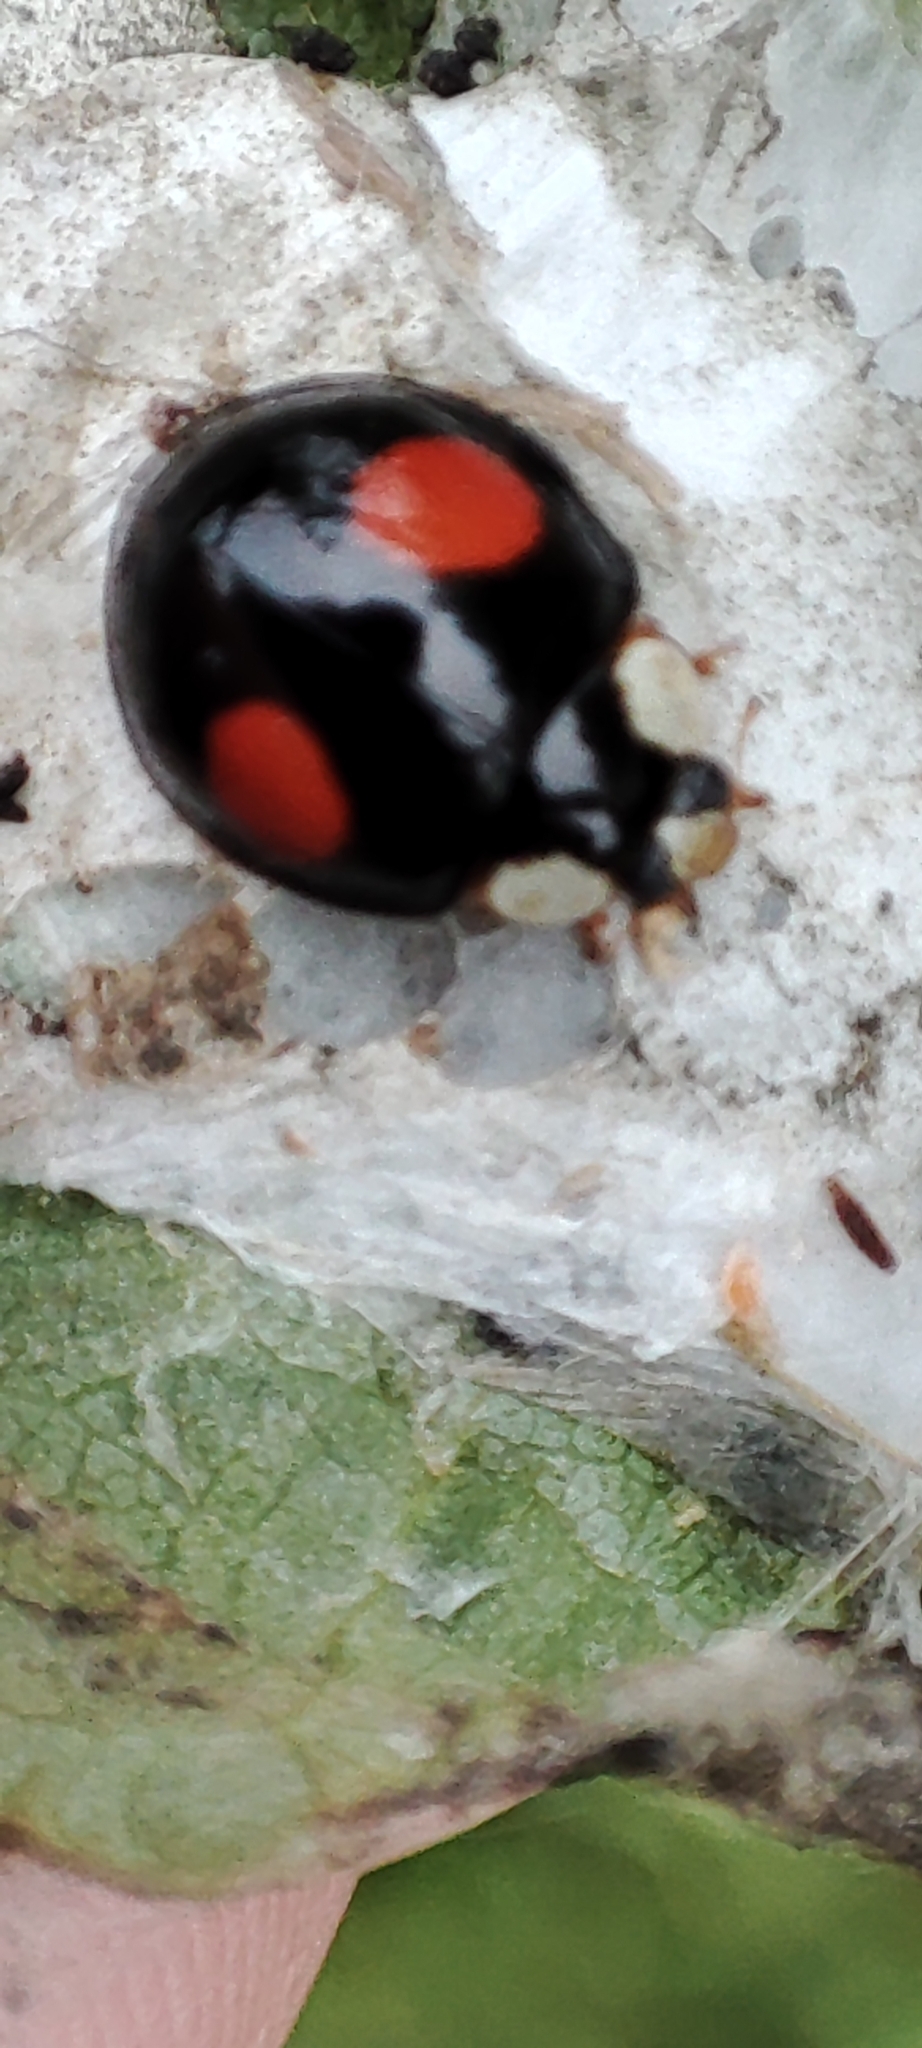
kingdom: Animalia
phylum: Arthropoda
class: Insecta
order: Coleoptera
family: Coccinellidae
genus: Harmonia
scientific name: Harmonia axyridis
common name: Harlequin ladybird
